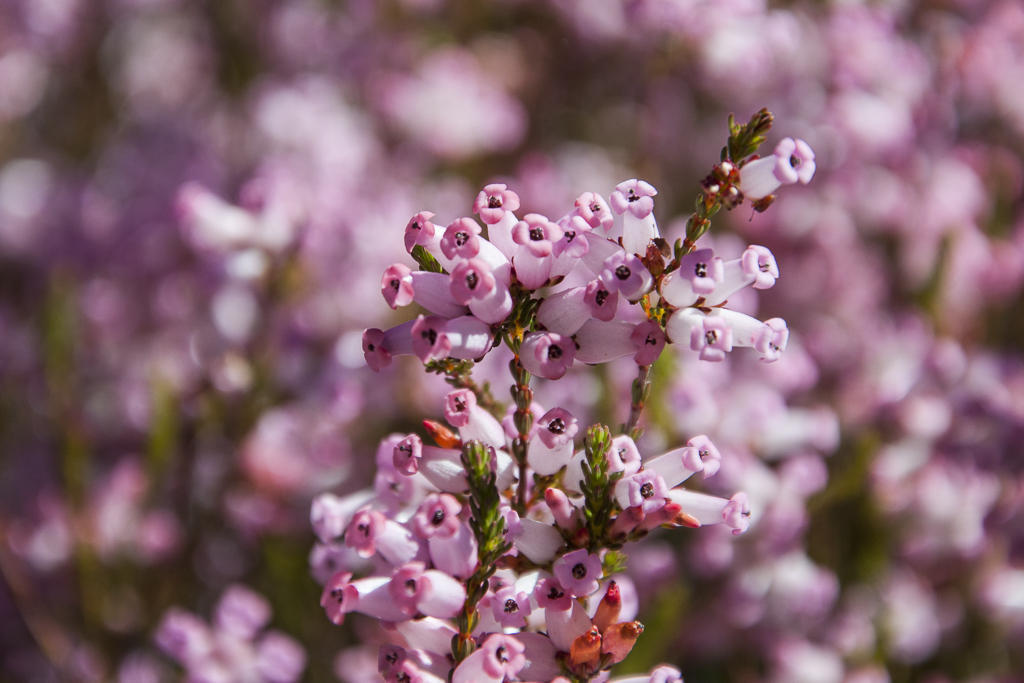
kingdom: Plantae
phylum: Tracheophyta
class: Magnoliopsida
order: Ericales
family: Ericaceae
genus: Erica
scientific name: Erica daphniflora
